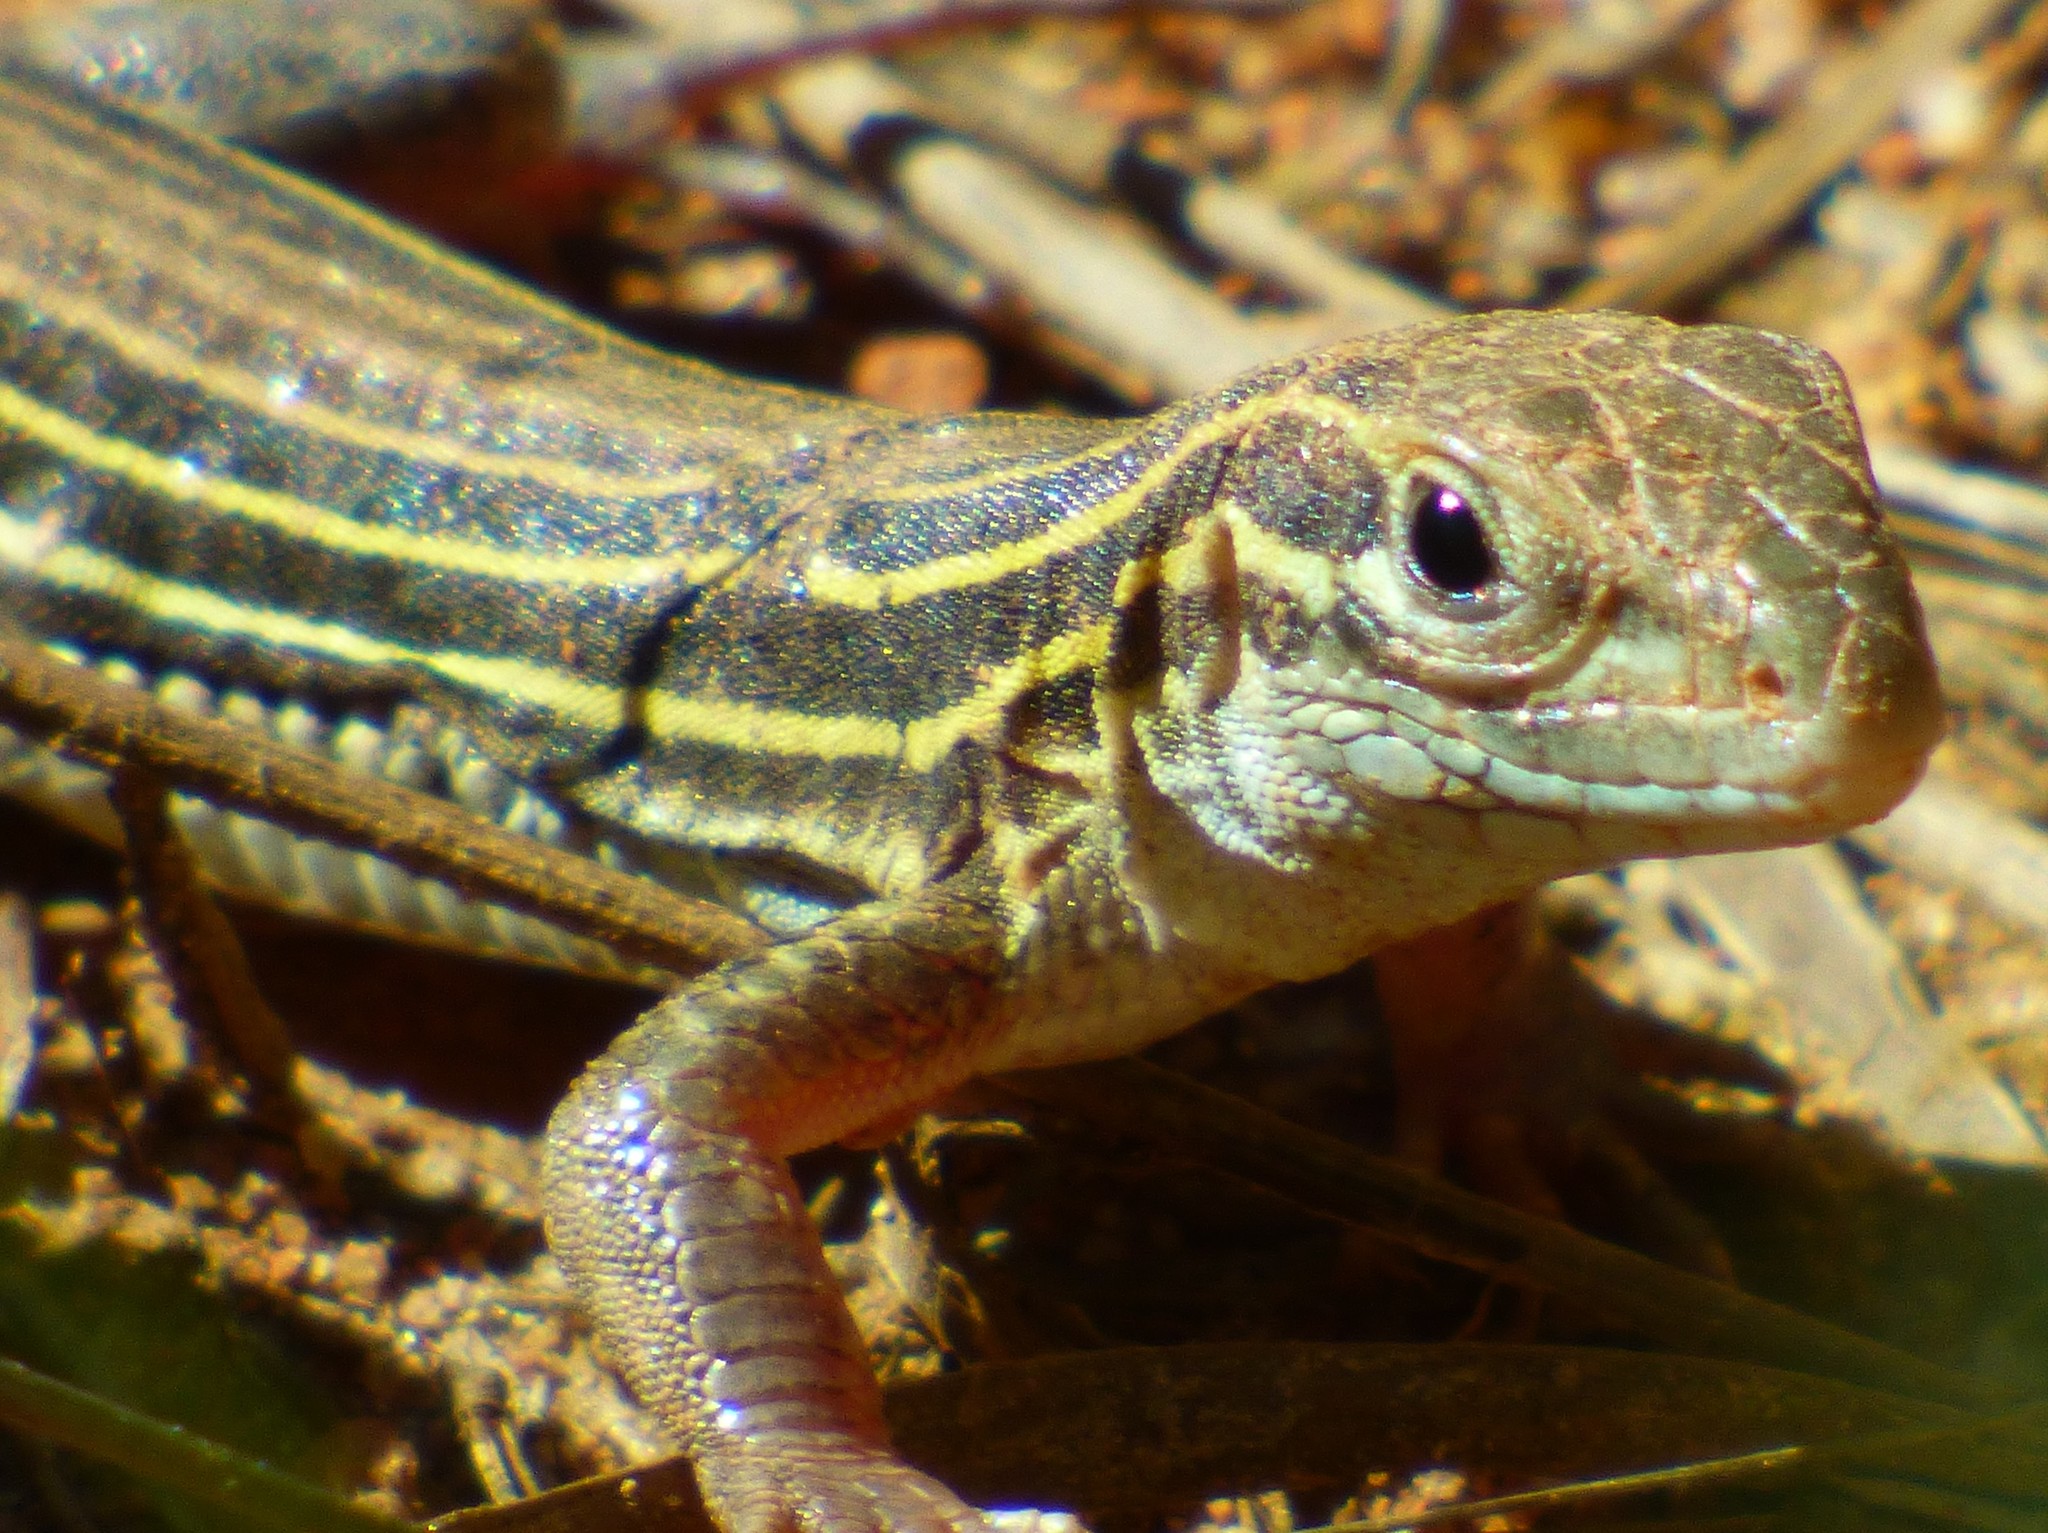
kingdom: Animalia
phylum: Chordata
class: Squamata
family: Teiidae
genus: Aspidoscelis
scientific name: Aspidoscelis sexlineatus
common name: Six-lined racerunner
